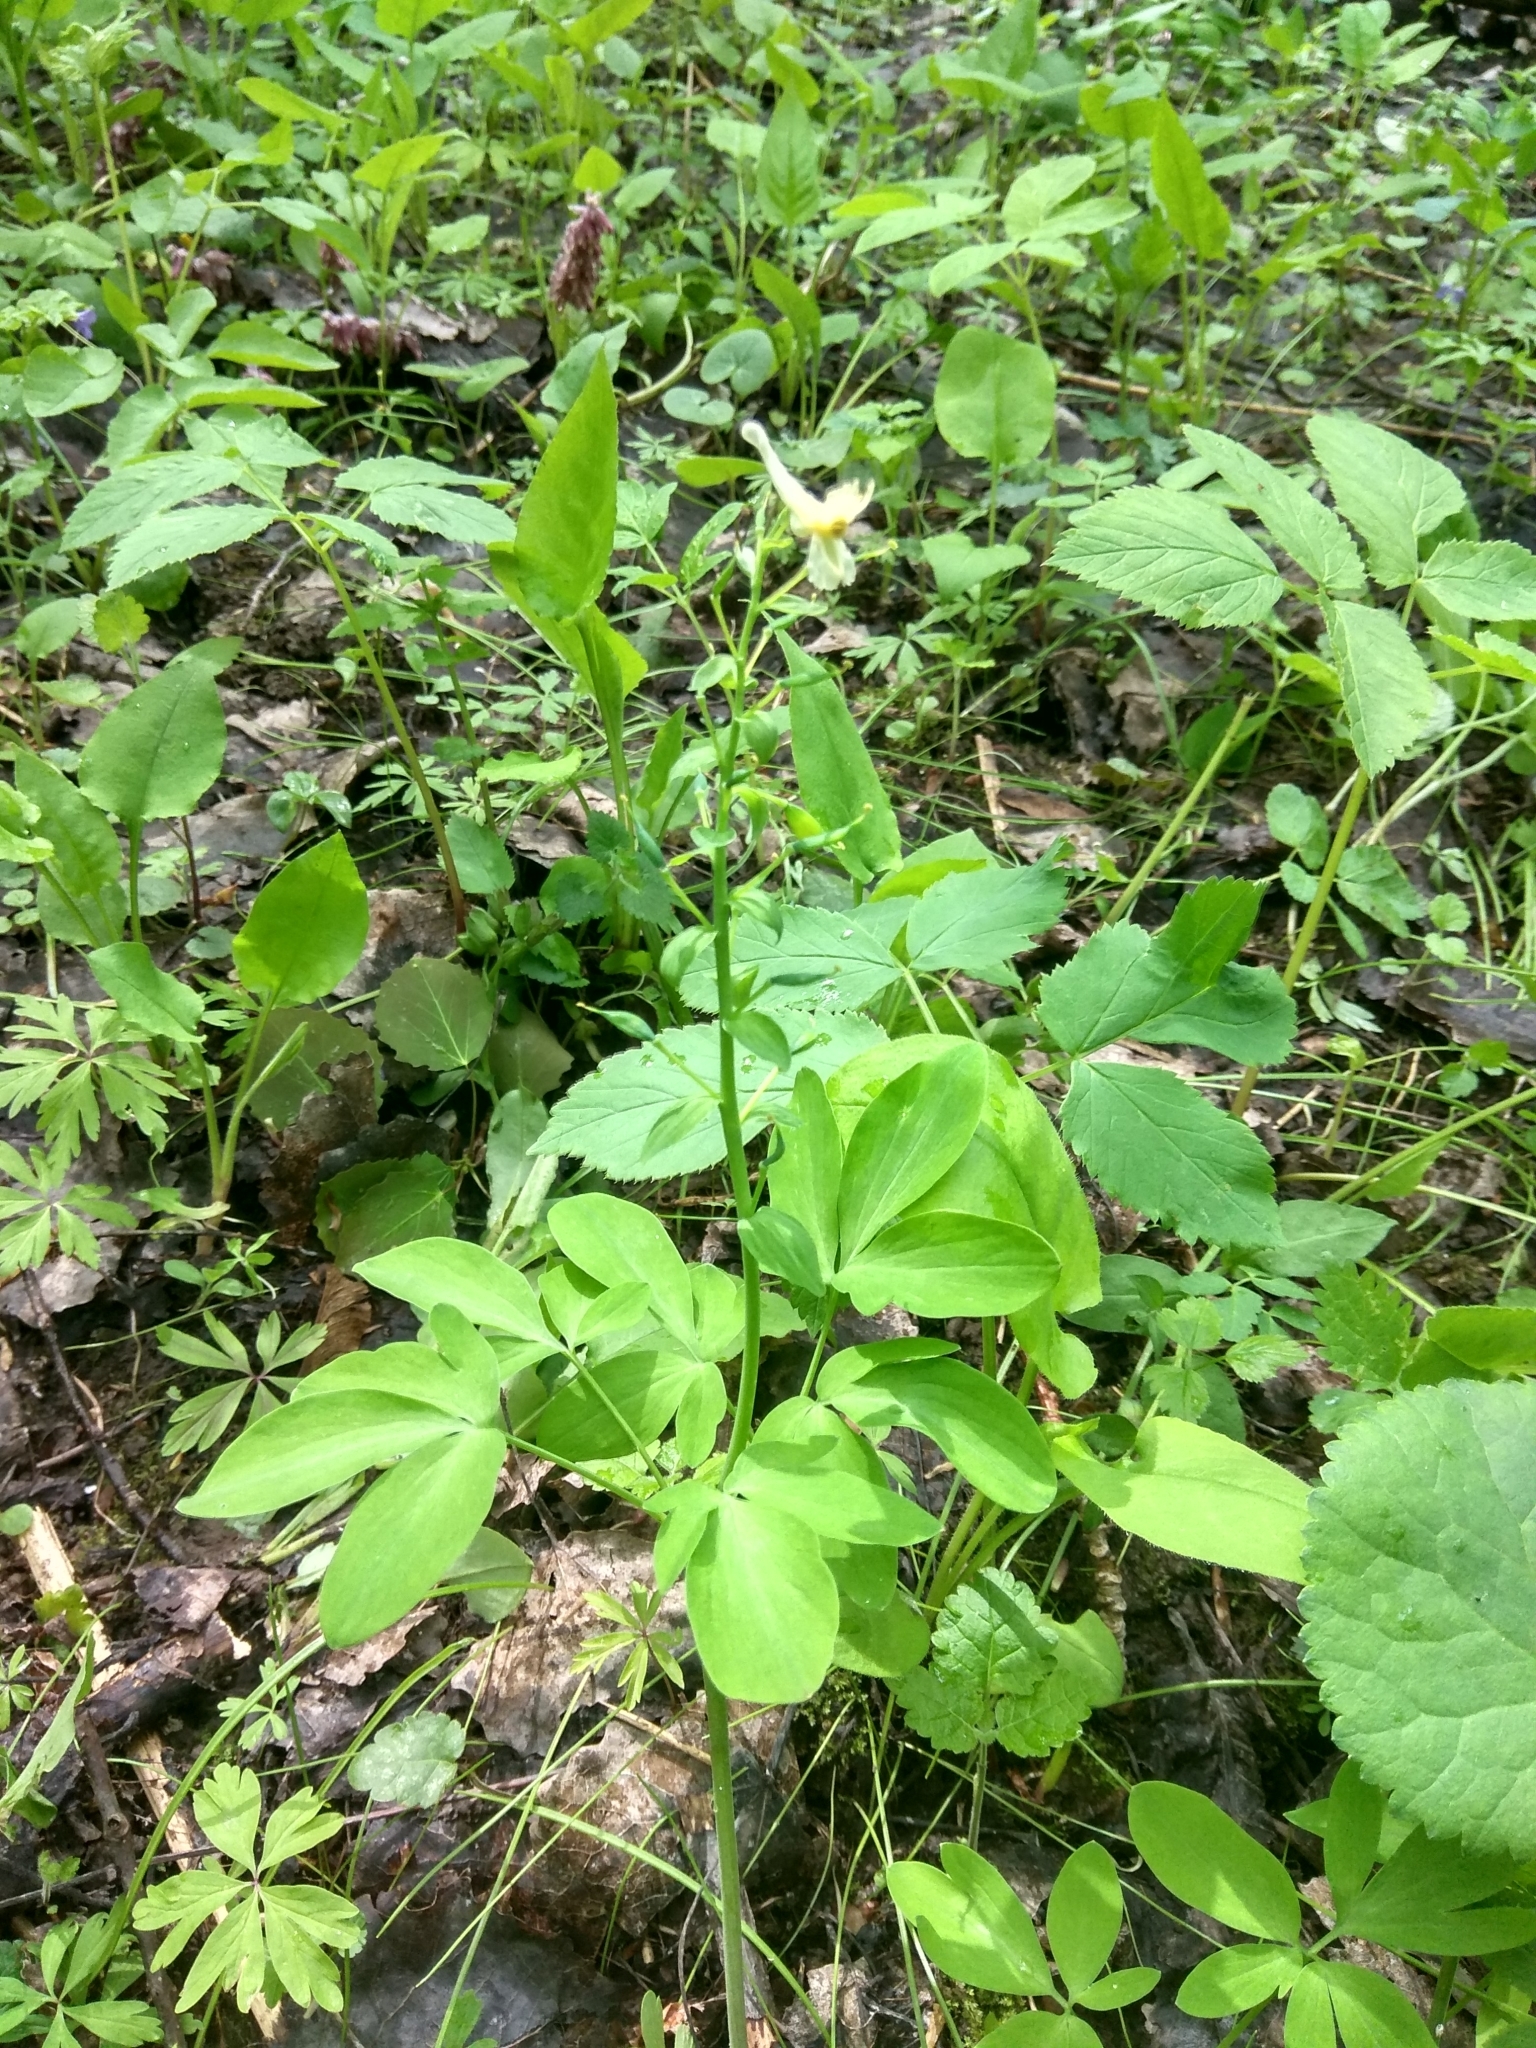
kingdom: Plantae
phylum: Tracheophyta
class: Magnoliopsida
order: Ranunculales
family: Papaveraceae
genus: Corydalis
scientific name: Corydalis cava
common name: Hollowroot
